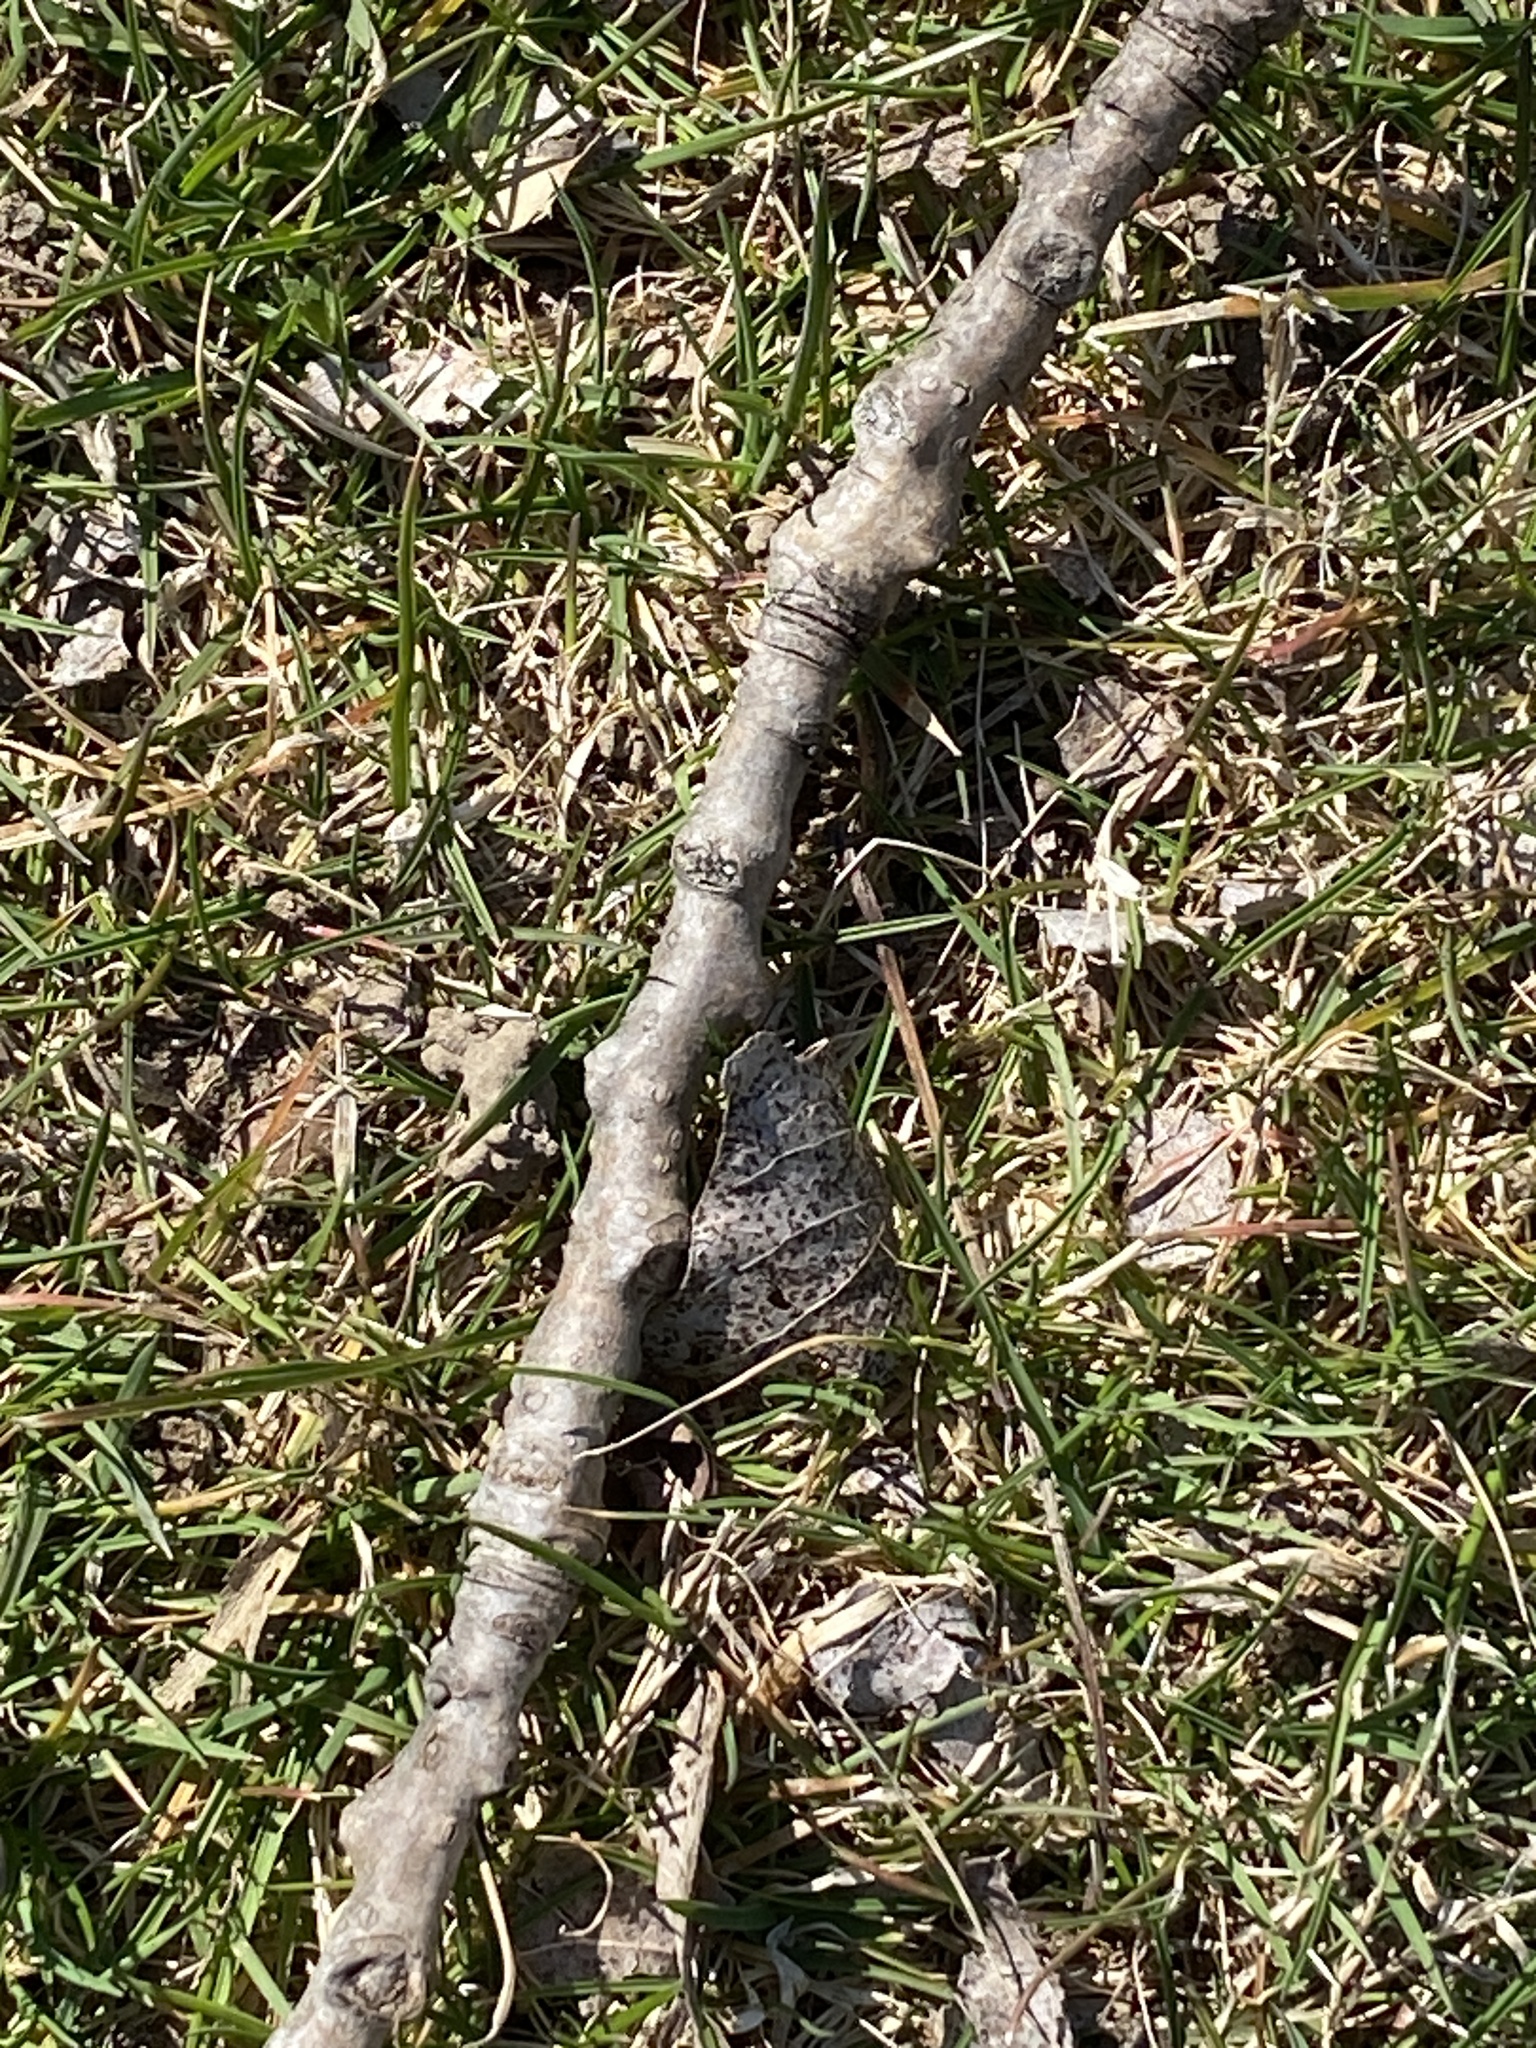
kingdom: Plantae
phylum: Tracheophyta
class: Magnoliopsida
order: Malpighiales
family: Salicaceae
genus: Populus
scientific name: Populus deltoides
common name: Eastern cottonwood
